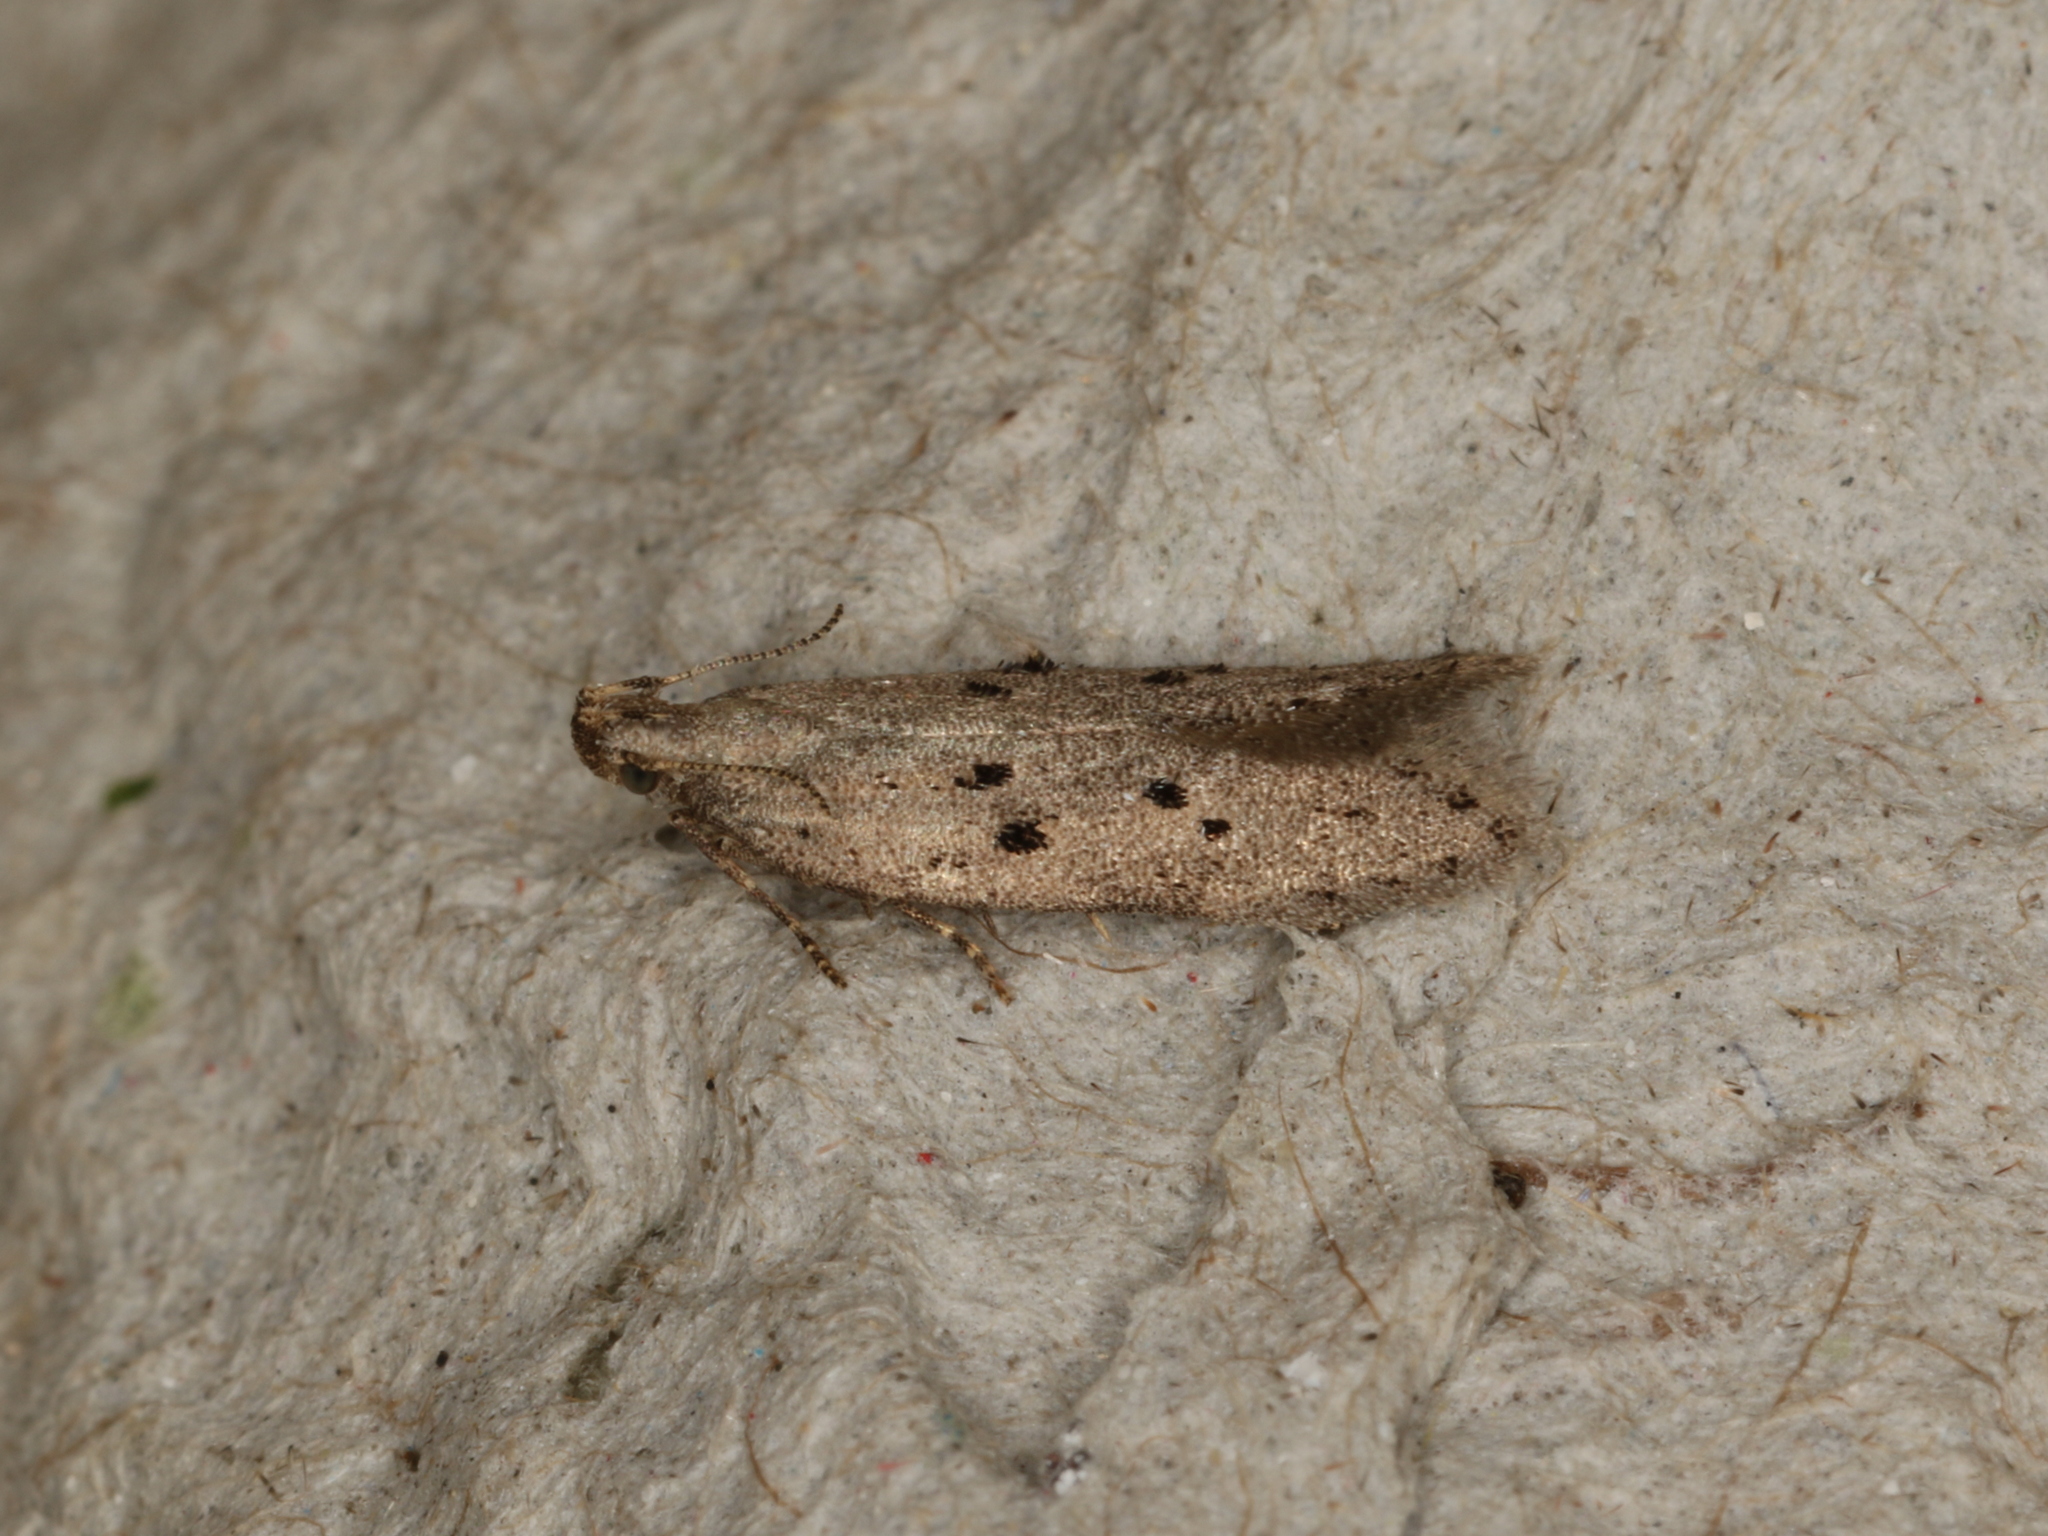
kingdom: Animalia
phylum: Arthropoda
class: Insecta
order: Lepidoptera
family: Gelechiidae
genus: Athrips
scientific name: Athrips mouffetella
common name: Dotted grey groundling
